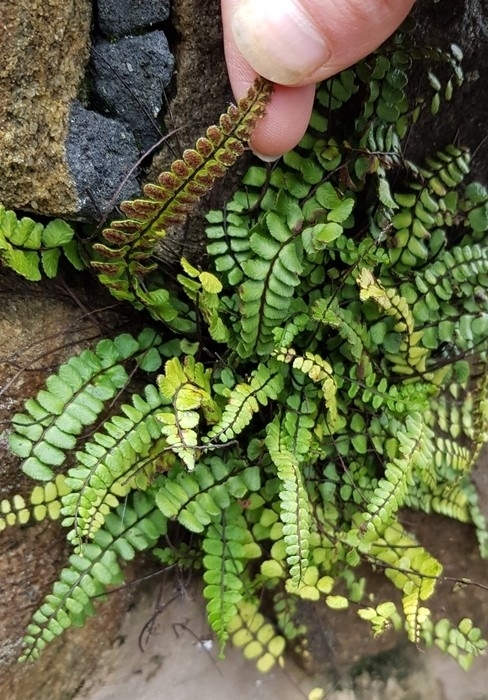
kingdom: Plantae
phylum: Tracheophyta
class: Polypodiopsida
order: Polypodiales
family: Aspleniaceae
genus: Asplenium
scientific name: Asplenium trichomanes
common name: Maidenhair spleenwort
